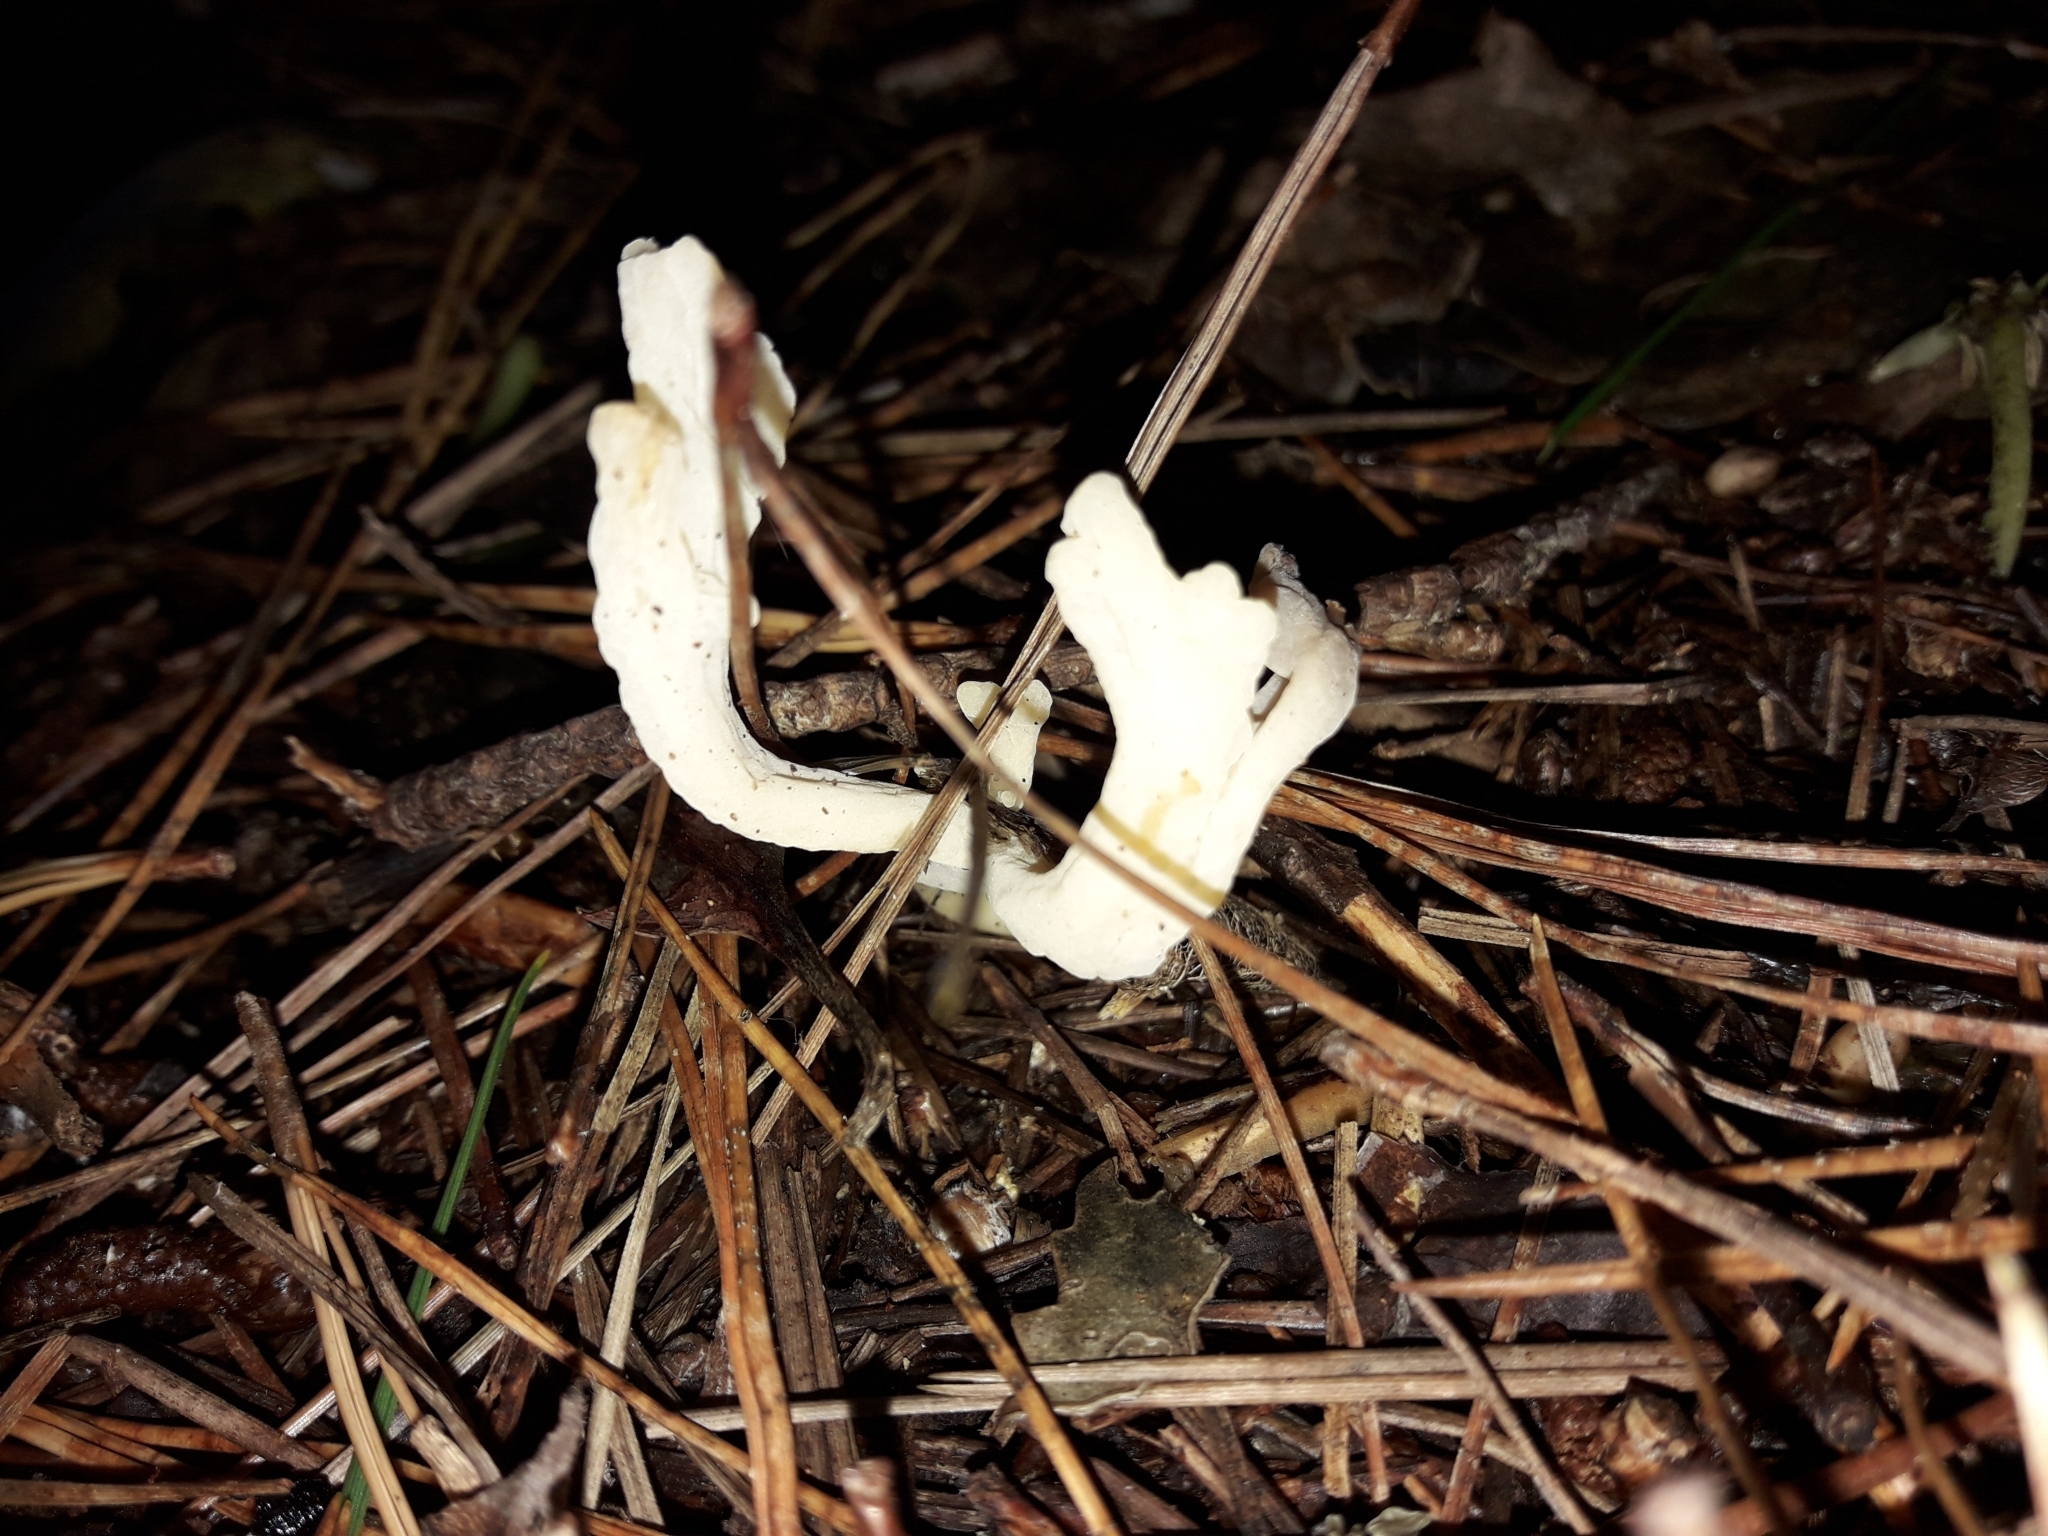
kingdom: Fungi
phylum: Basidiomycota
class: Agaricomycetes
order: Cantharellales
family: Hydnaceae
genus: Clavulina
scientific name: Clavulina rugosa
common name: Wrinkled club
